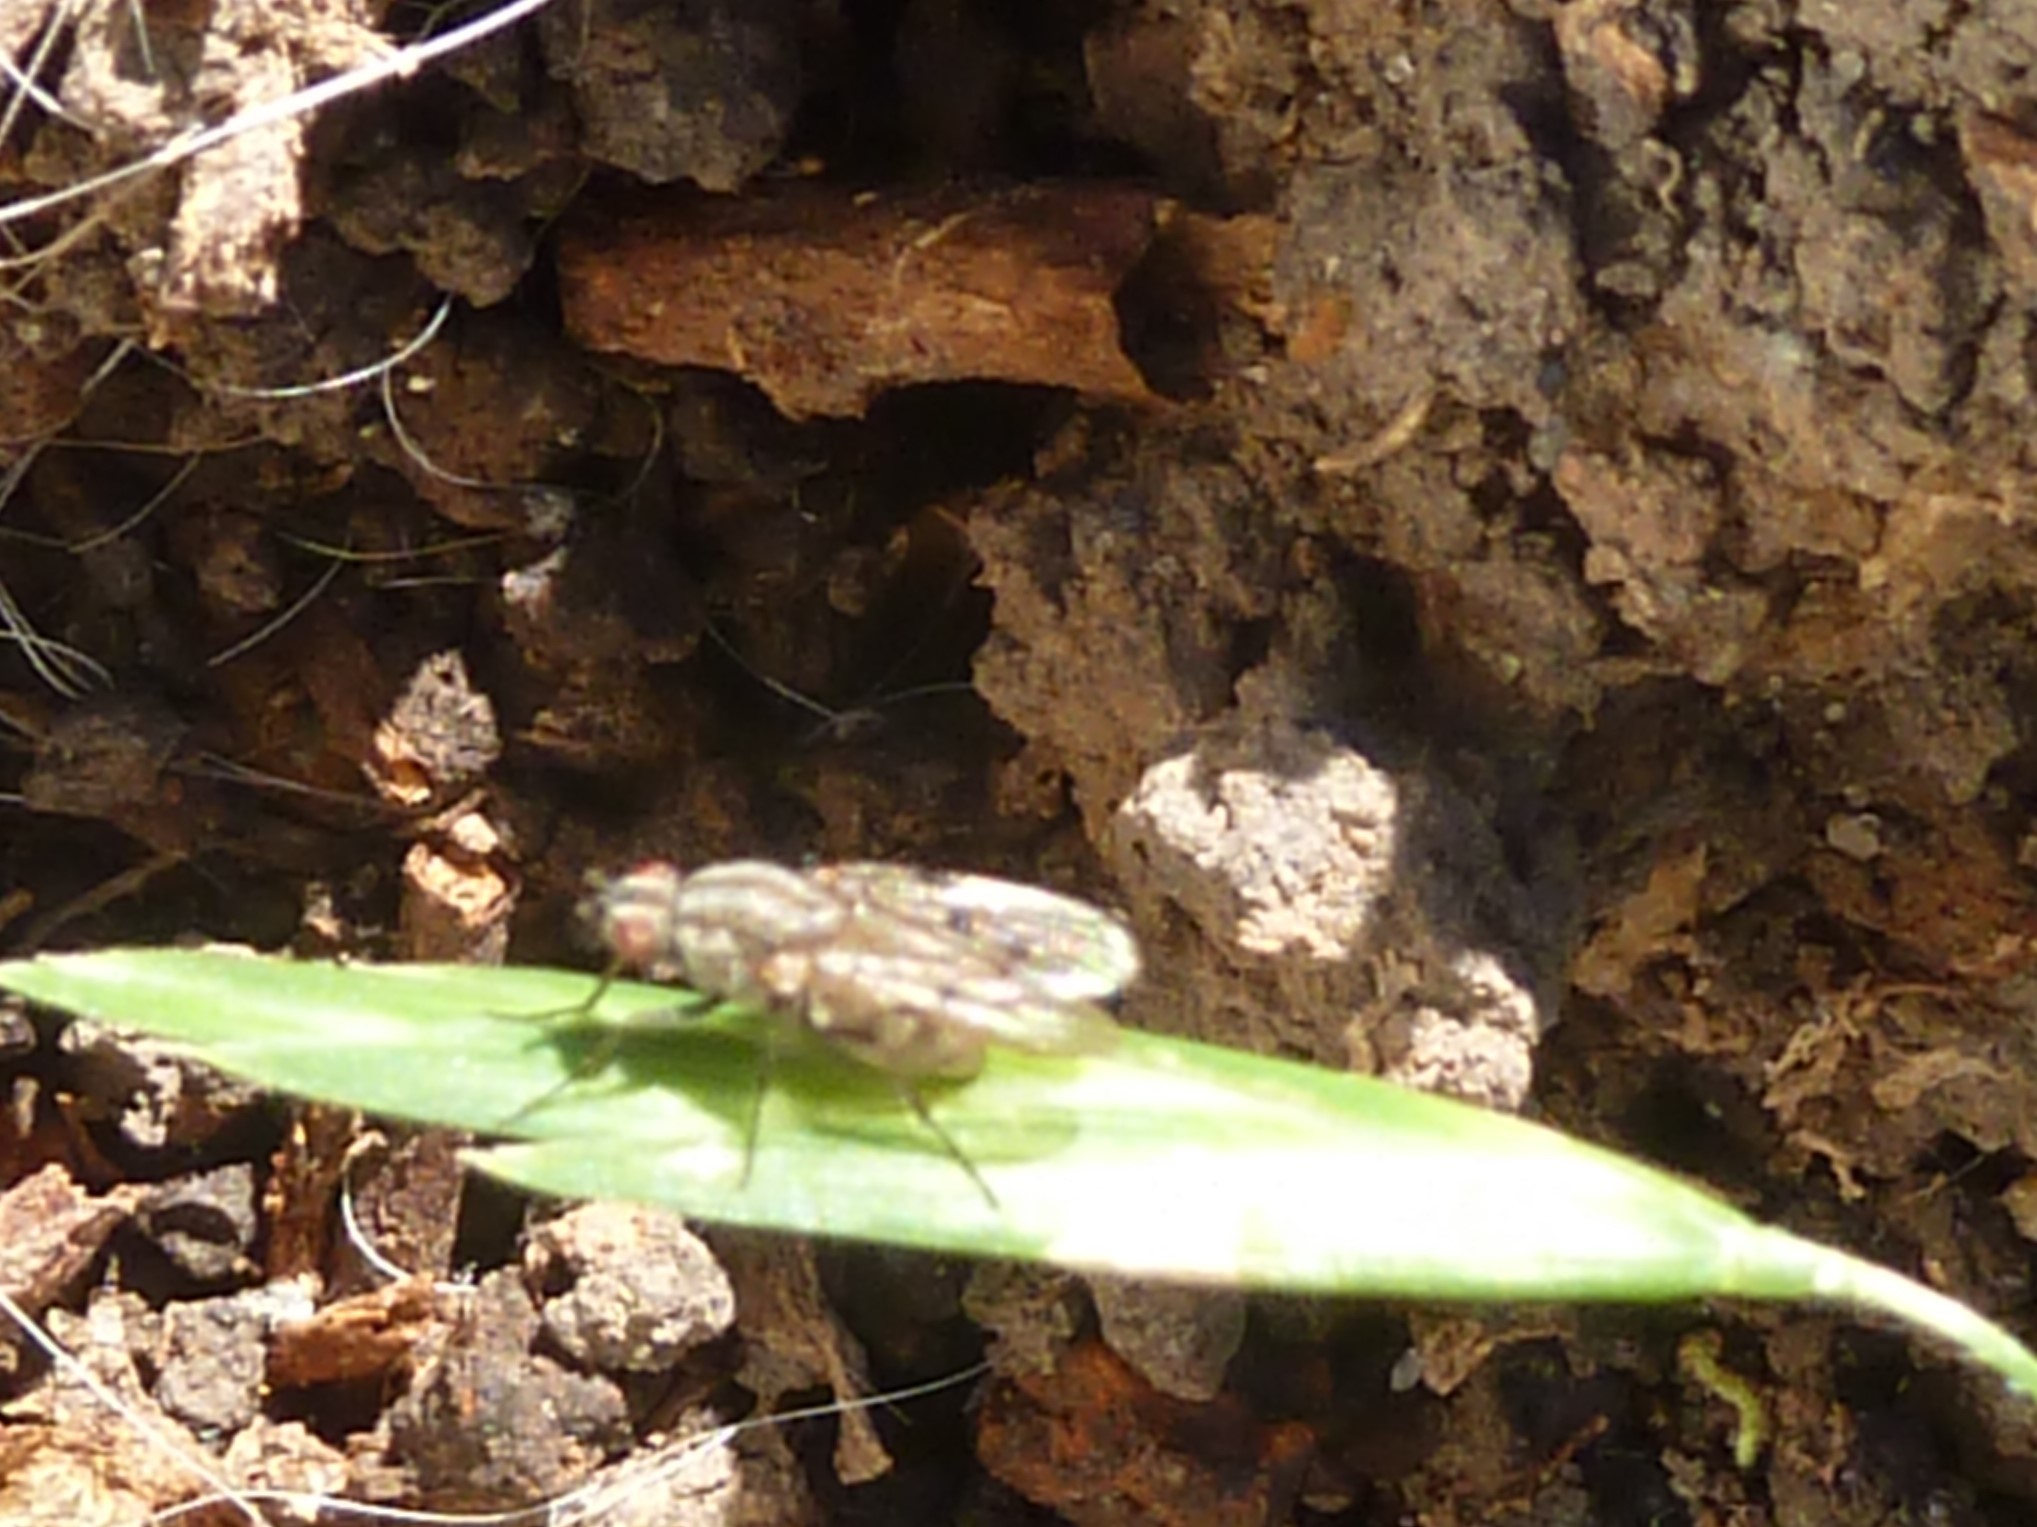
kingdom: Animalia
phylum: Arthropoda
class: Insecta
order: Diptera
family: Anthomyiidae
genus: Anthomyia
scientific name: Anthomyia punctipennis
